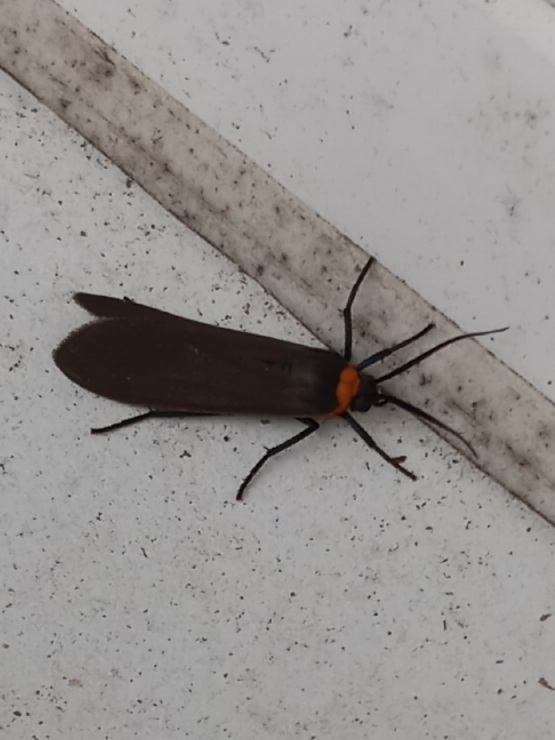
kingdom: Animalia
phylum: Arthropoda
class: Insecta
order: Lepidoptera
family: Erebidae
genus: Cisseps
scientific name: Cisseps fulvicollis
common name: Yellow-collared scape moth
